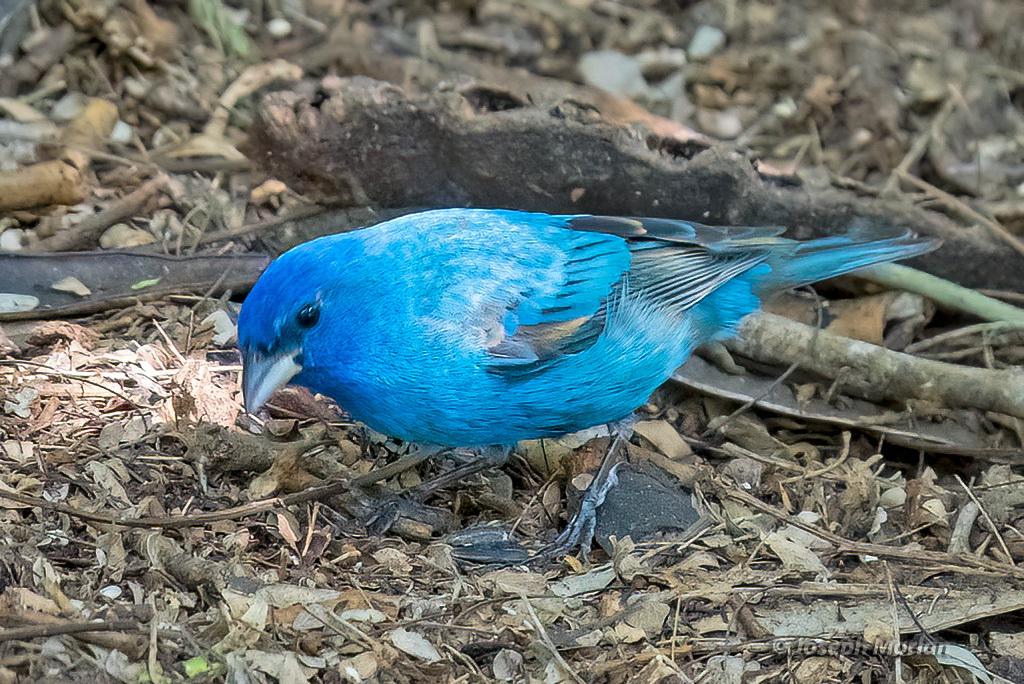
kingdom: Animalia
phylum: Chordata
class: Aves
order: Passeriformes
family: Cardinalidae
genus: Passerina
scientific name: Passerina cyanea
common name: Indigo bunting
